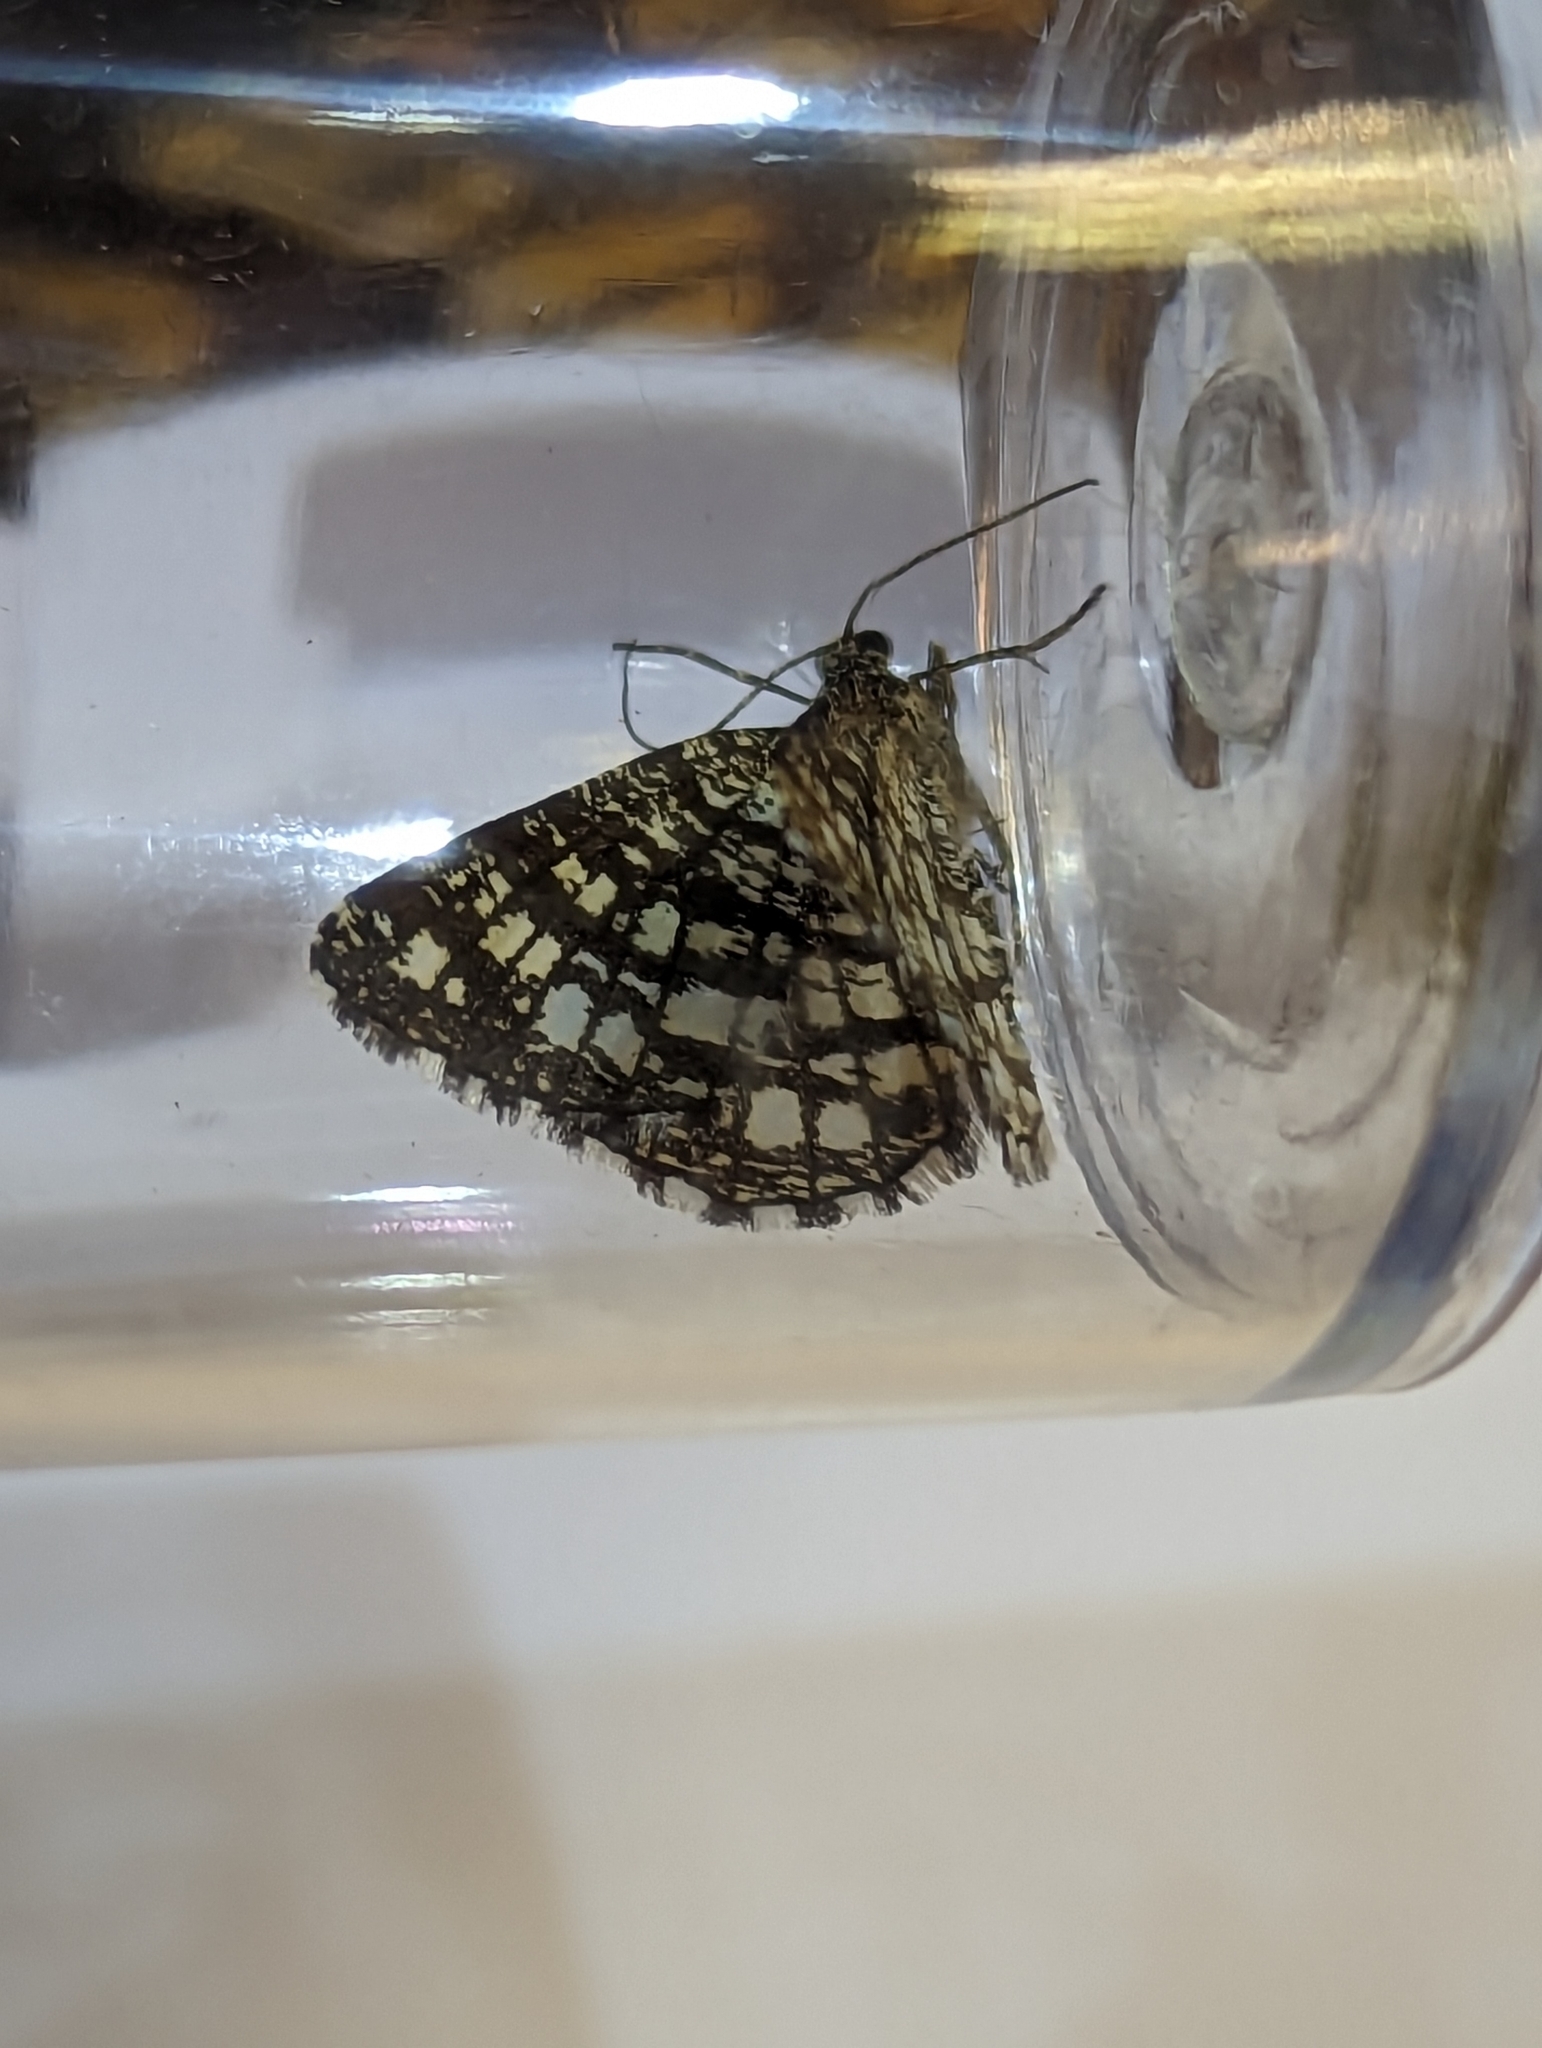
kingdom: Animalia
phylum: Arthropoda
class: Insecta
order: Lepidoptera
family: Geometridae
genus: Chiasmia
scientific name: Chiasmia clathrata
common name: Latticed heath
